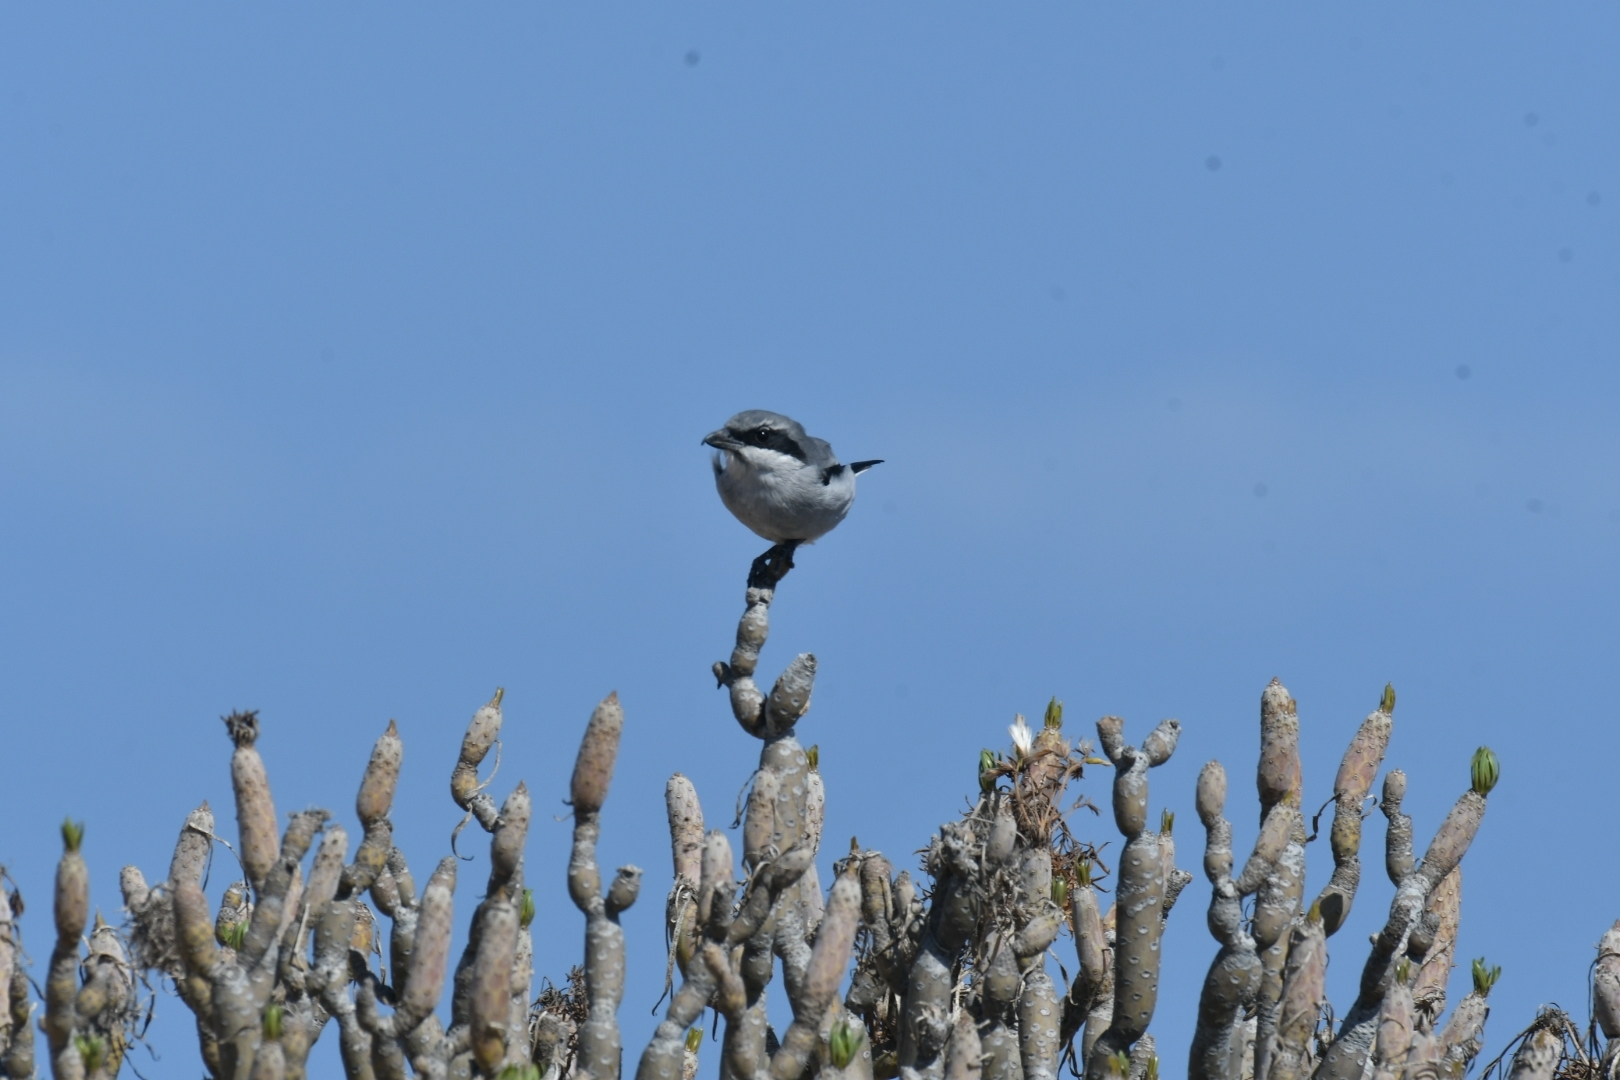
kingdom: Animalia
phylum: Chordata
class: Aves
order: Passeriformes
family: Laniidae
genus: Lanius
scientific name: Lanius excubitor
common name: Great grey shrike
